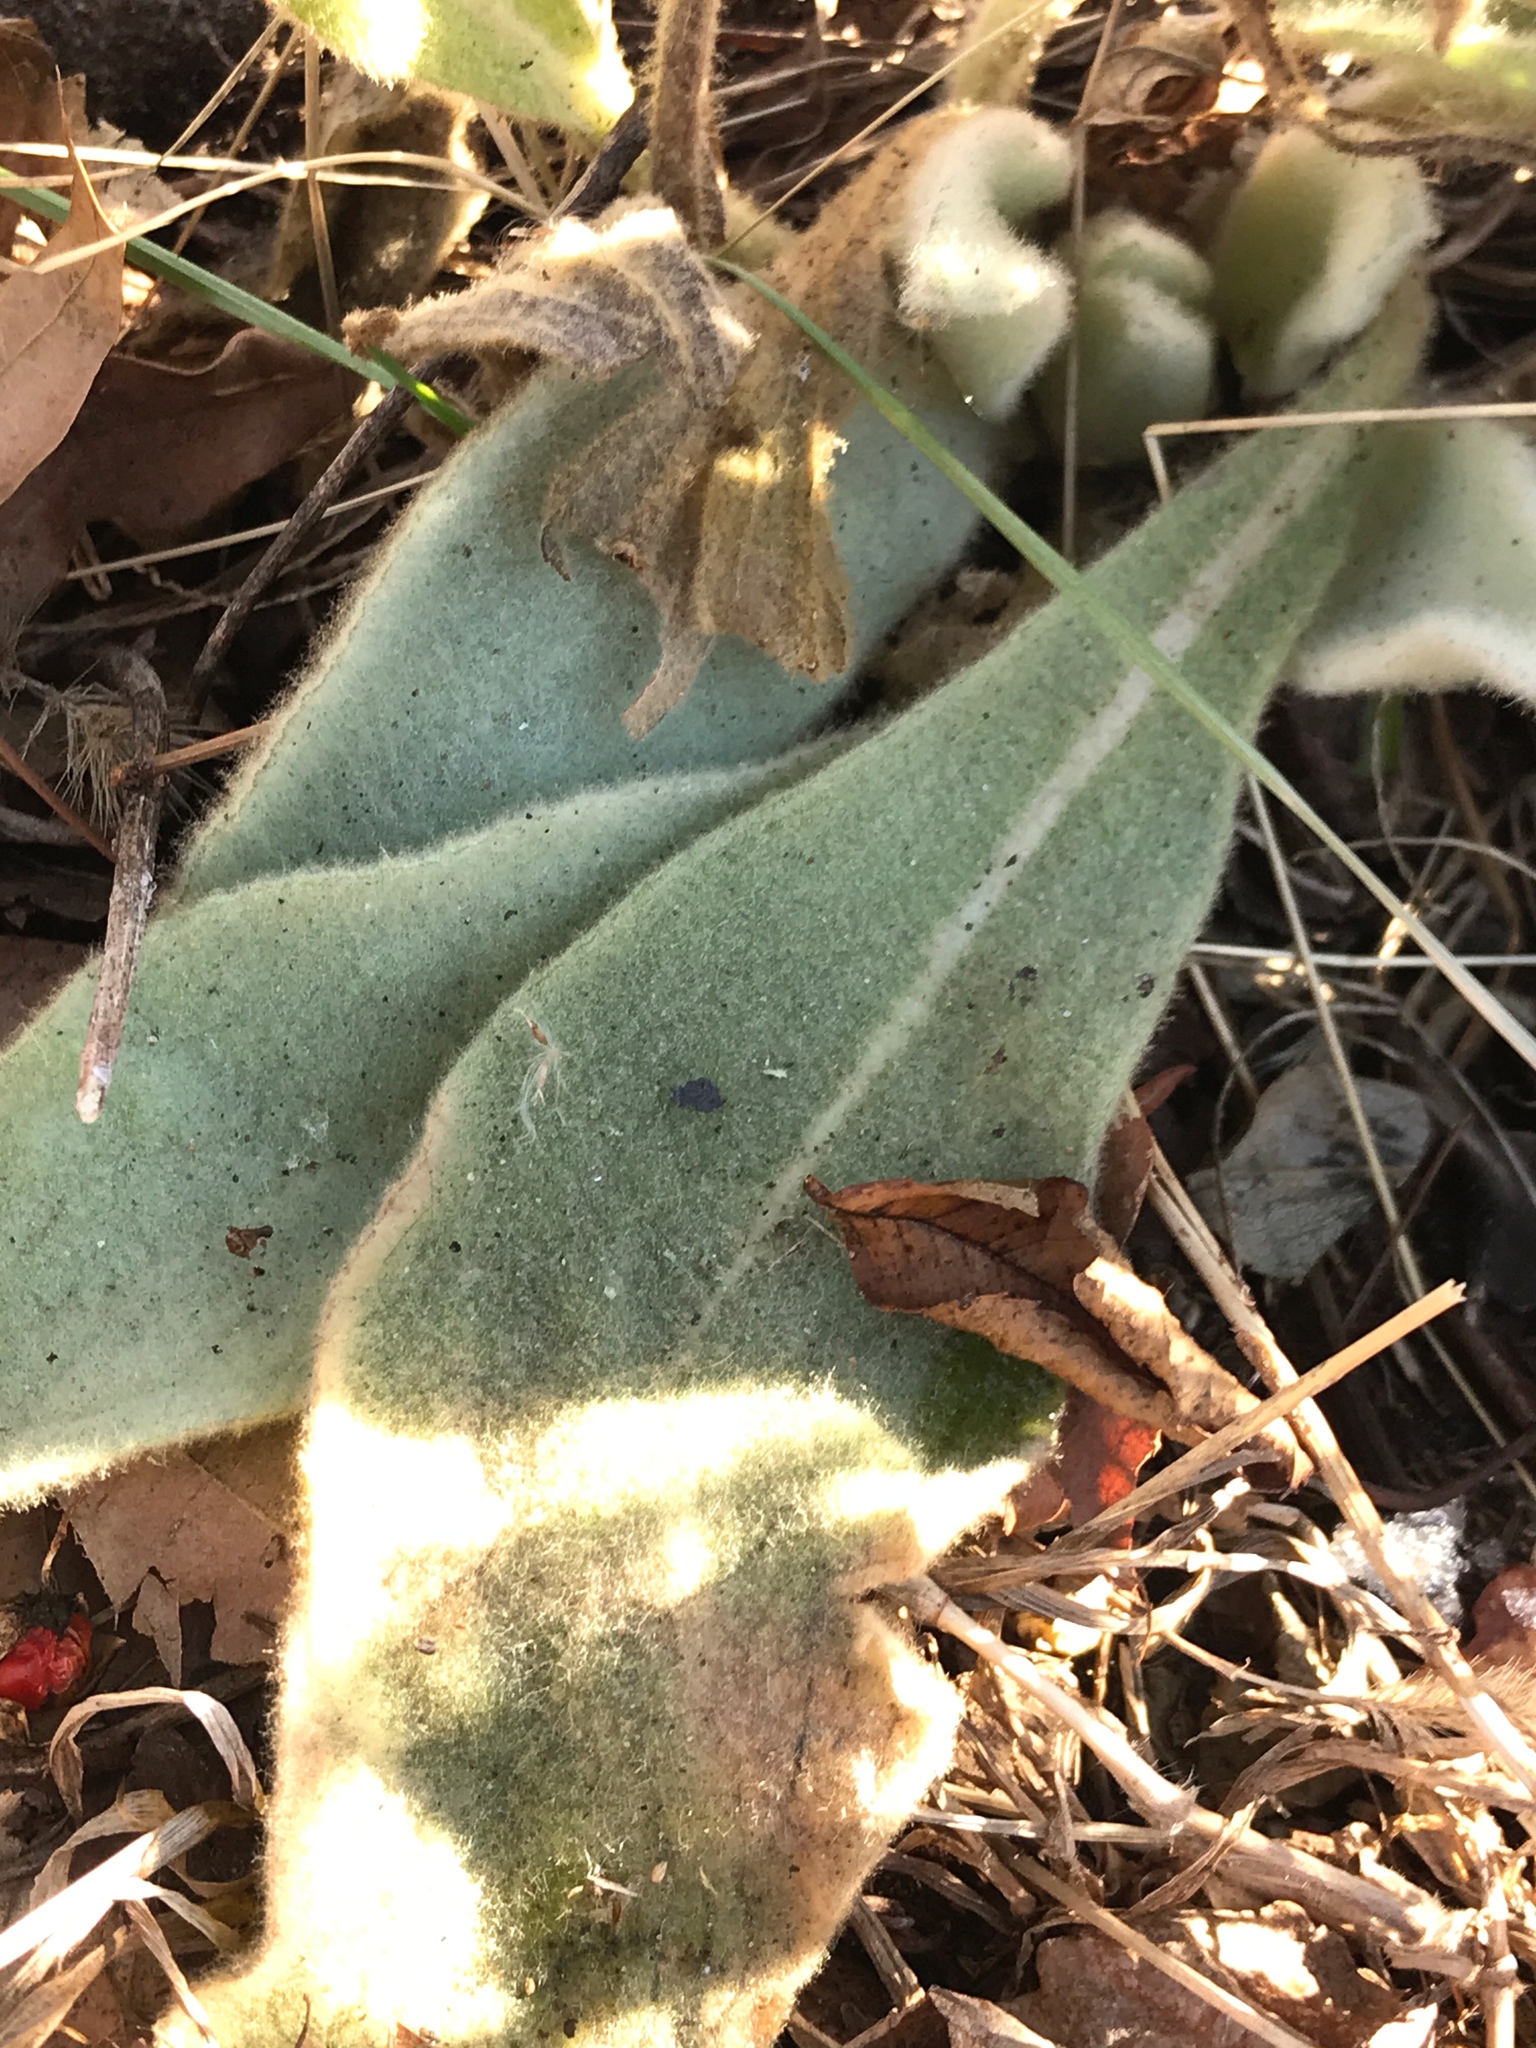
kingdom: Plantae
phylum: Tracheophyta
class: Magnoliopsida
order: Lamiales
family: Scrophulariaceae
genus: Verbascum
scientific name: Verbascum thapsus
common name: Common mullein
